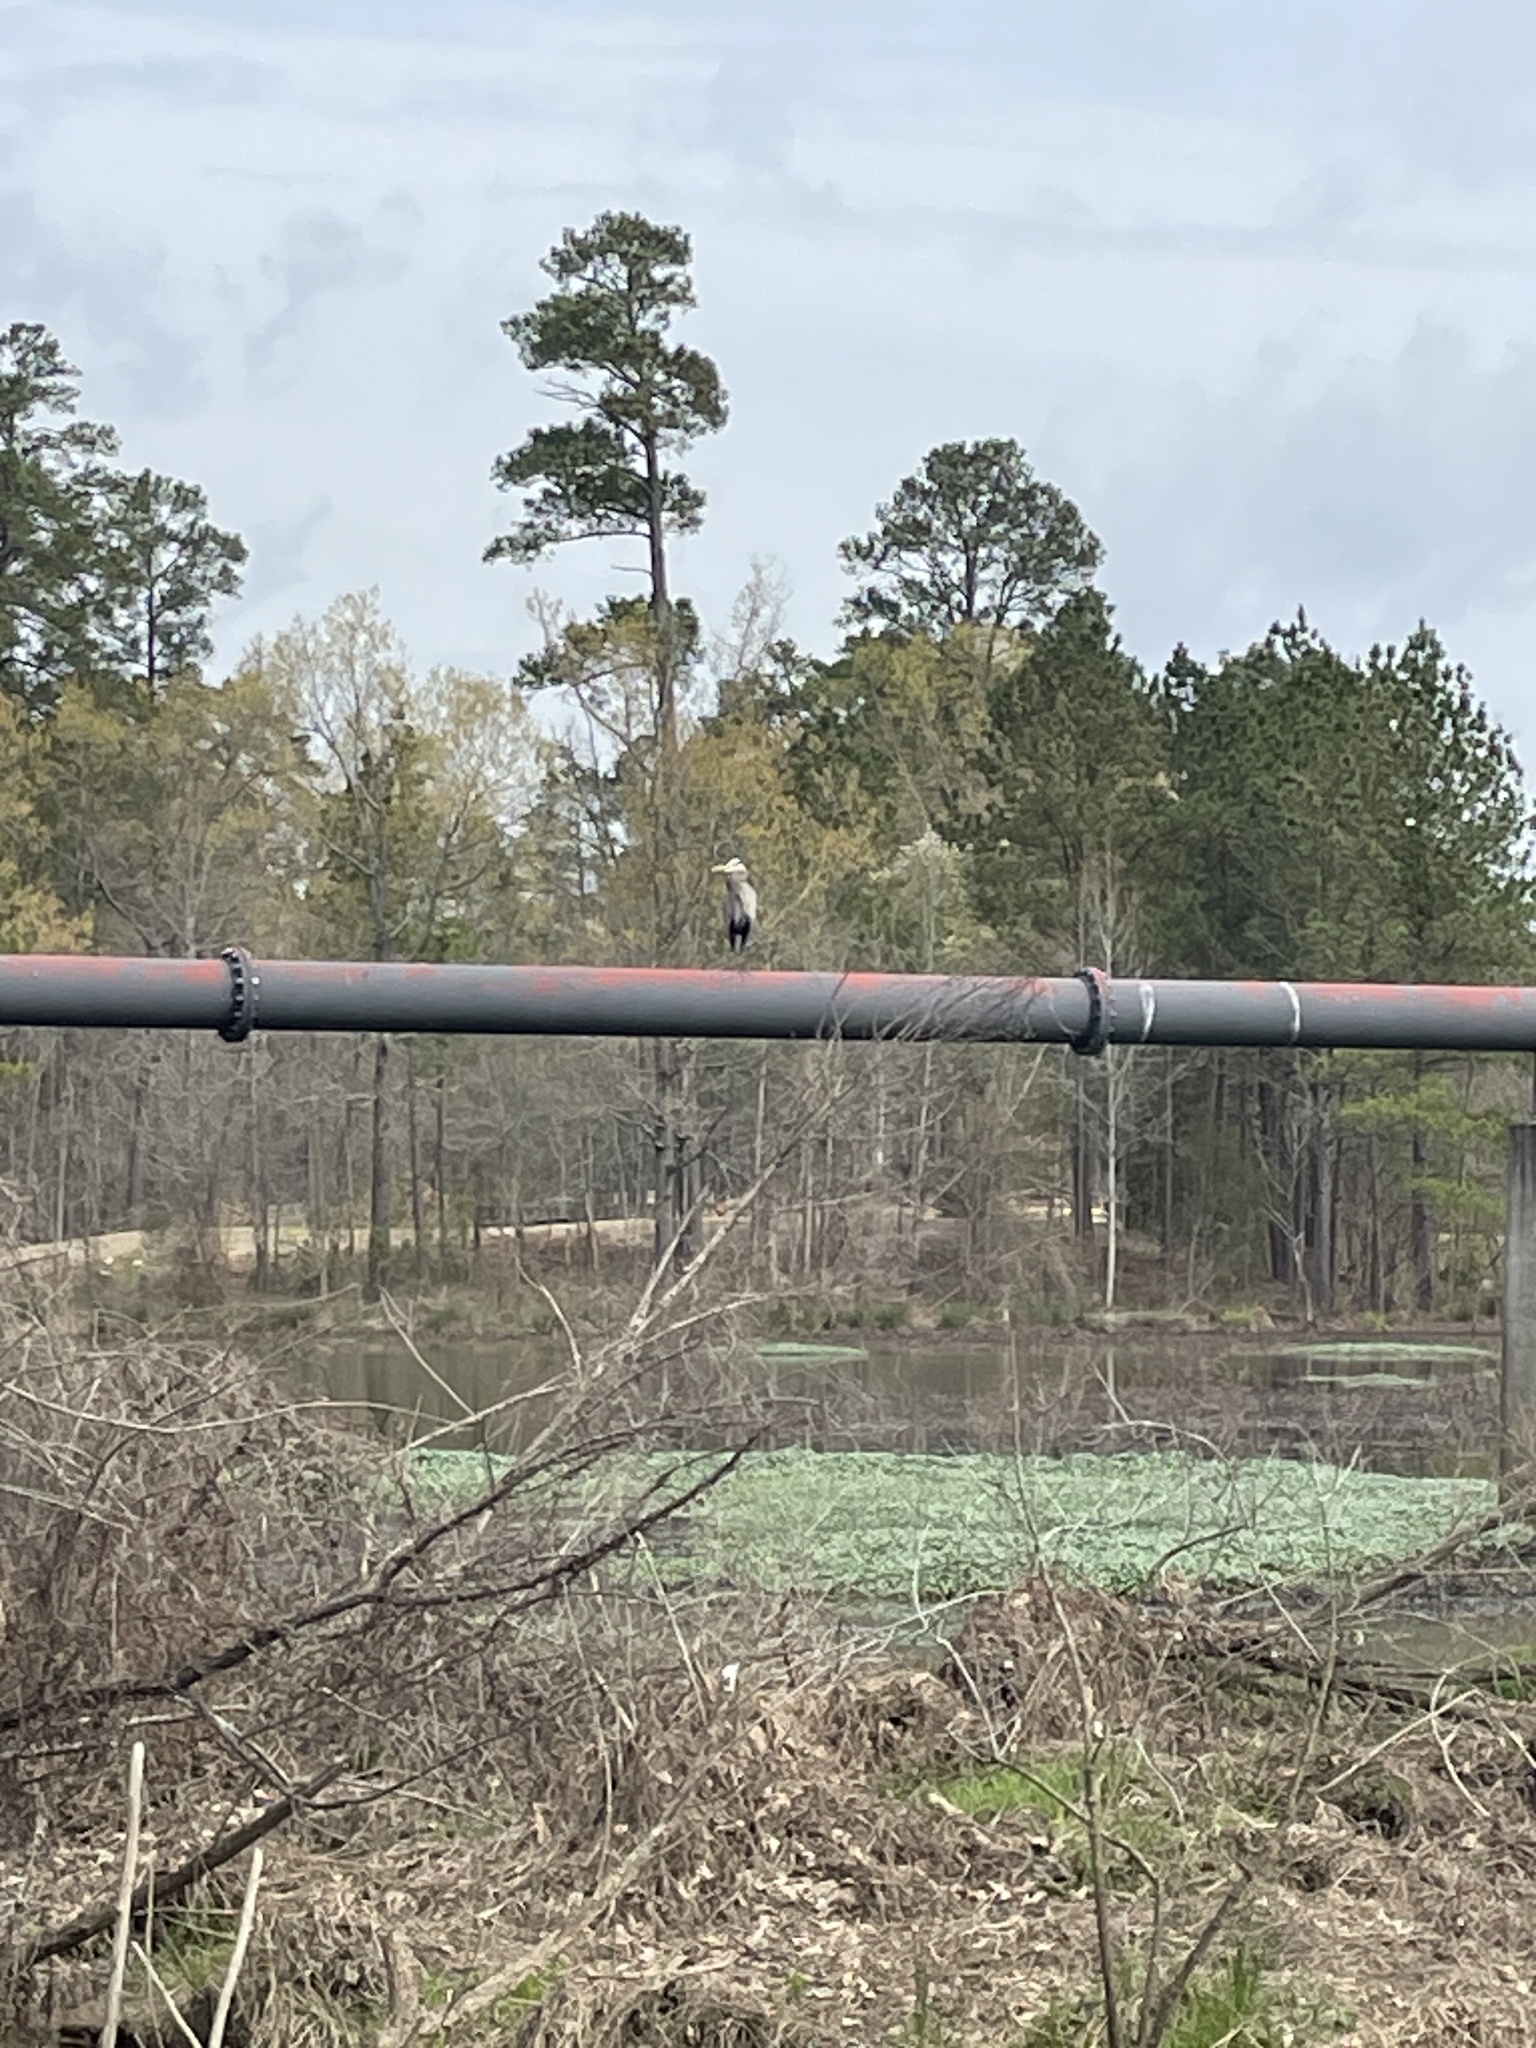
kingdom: Animalia
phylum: Chordata
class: Aves
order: Pelecaniformes
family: Ardeidae
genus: Ardea
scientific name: Ardea herodias
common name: Great blue heron
